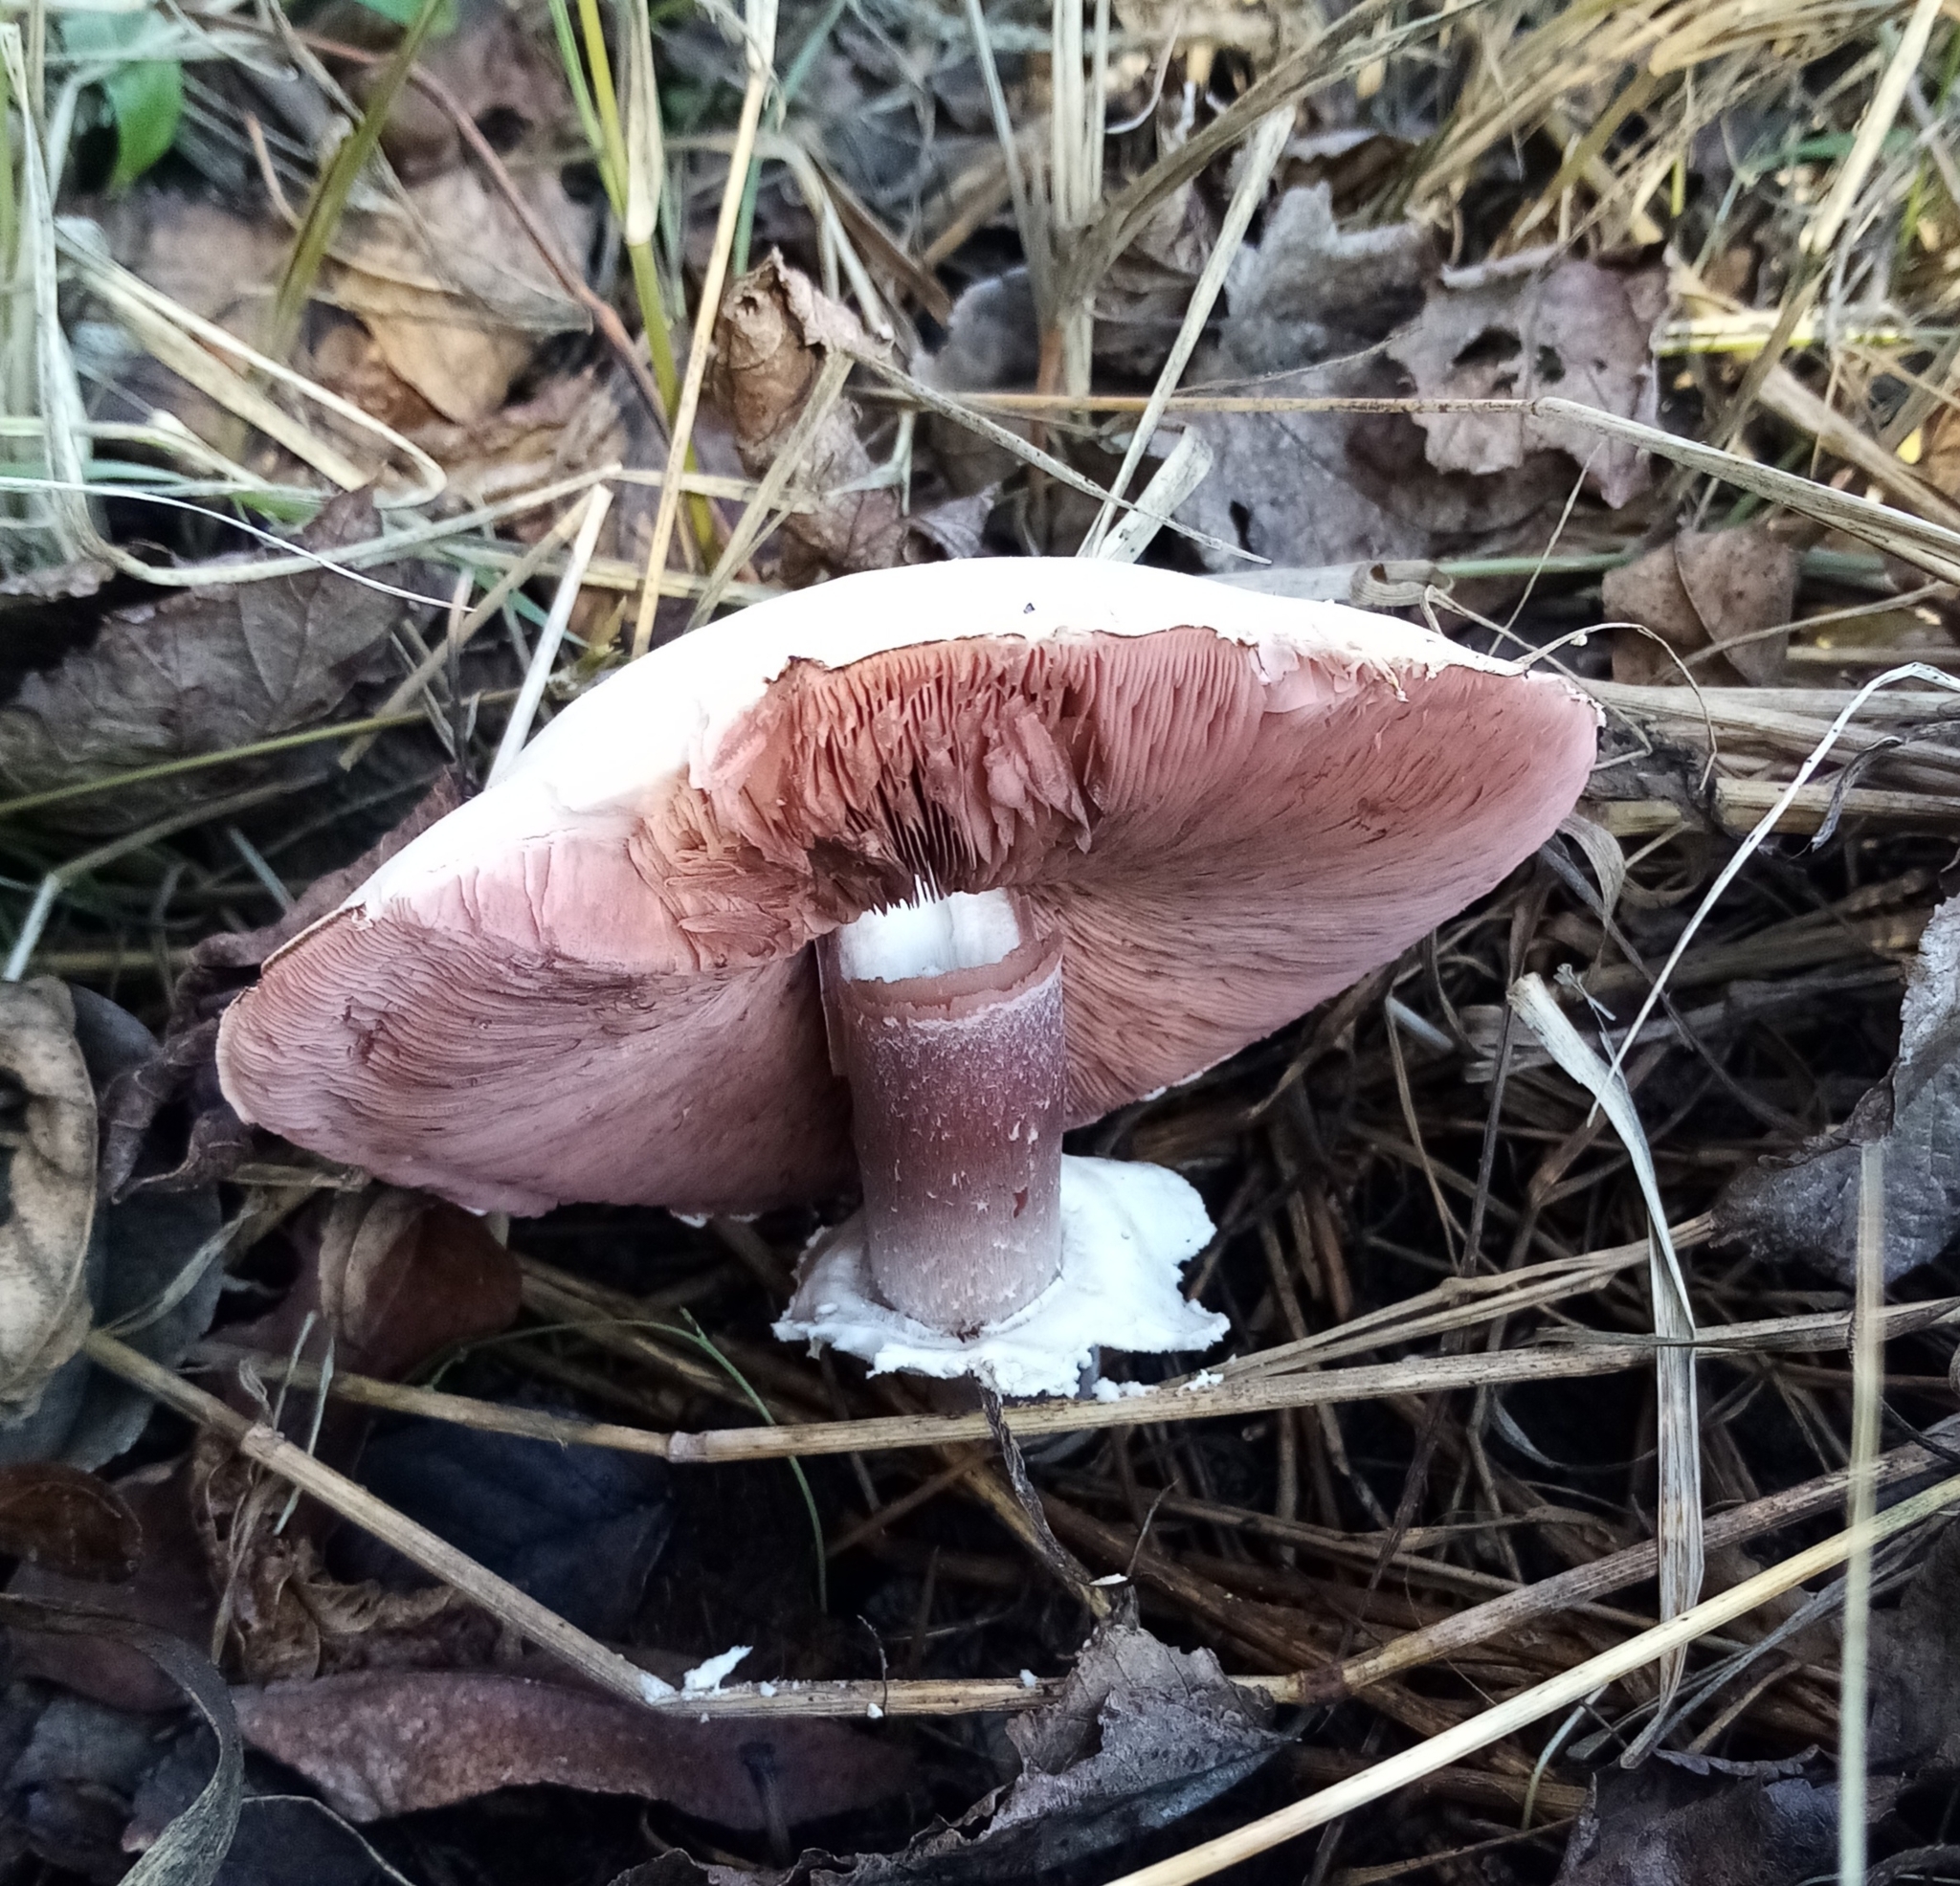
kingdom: Fungi
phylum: Basidiomycota
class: Agaricomycetes
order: Agaricales
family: Agaricaceae
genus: Agaricus
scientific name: Agaricus sylvicola
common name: Wood mushroom
